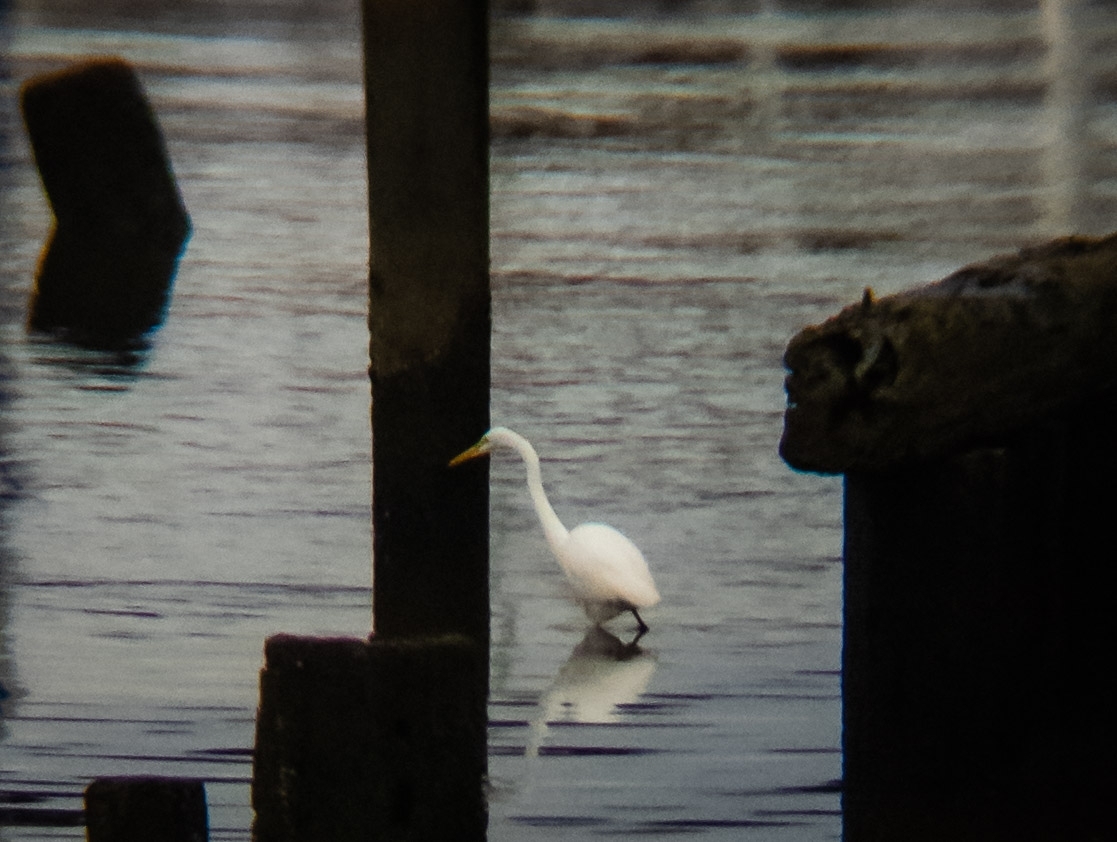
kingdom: Animalia
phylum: Chordata
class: Aves
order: Pelecaniformes
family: Ardeidae
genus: Ardea
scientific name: Ardea alba
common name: Great egret
